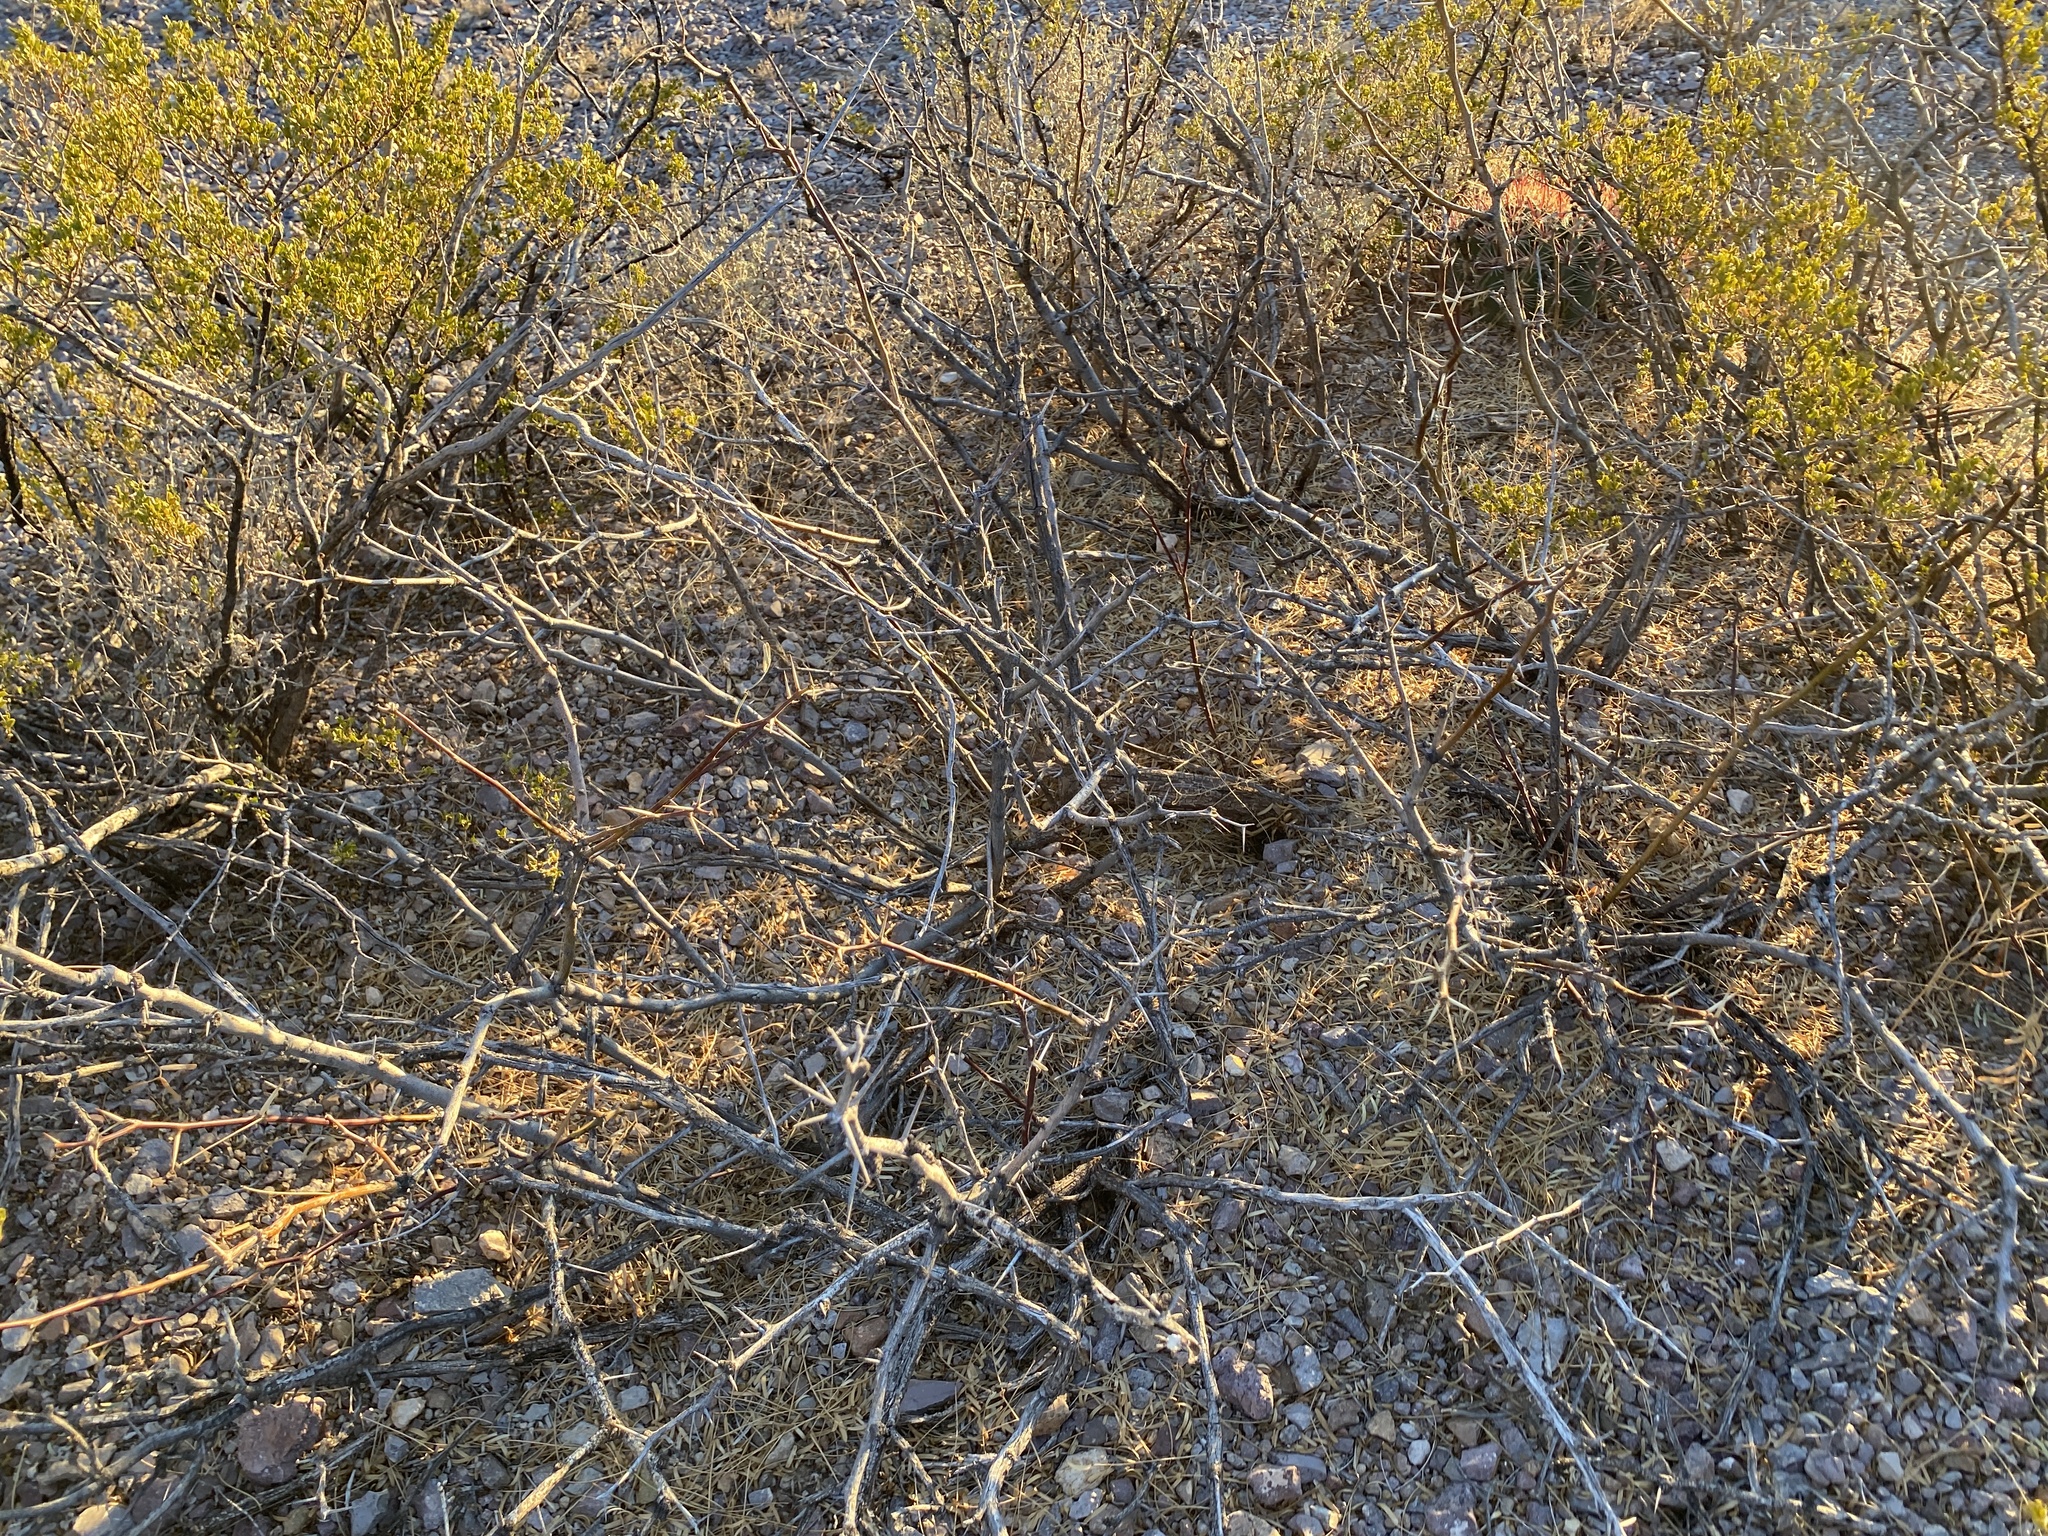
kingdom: Plantae
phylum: Tracheophyta
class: Magnoliopsida
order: Fabales
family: Fabaceae
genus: Prosopis
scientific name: Prosopis glandulosa
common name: Honey mesquite
